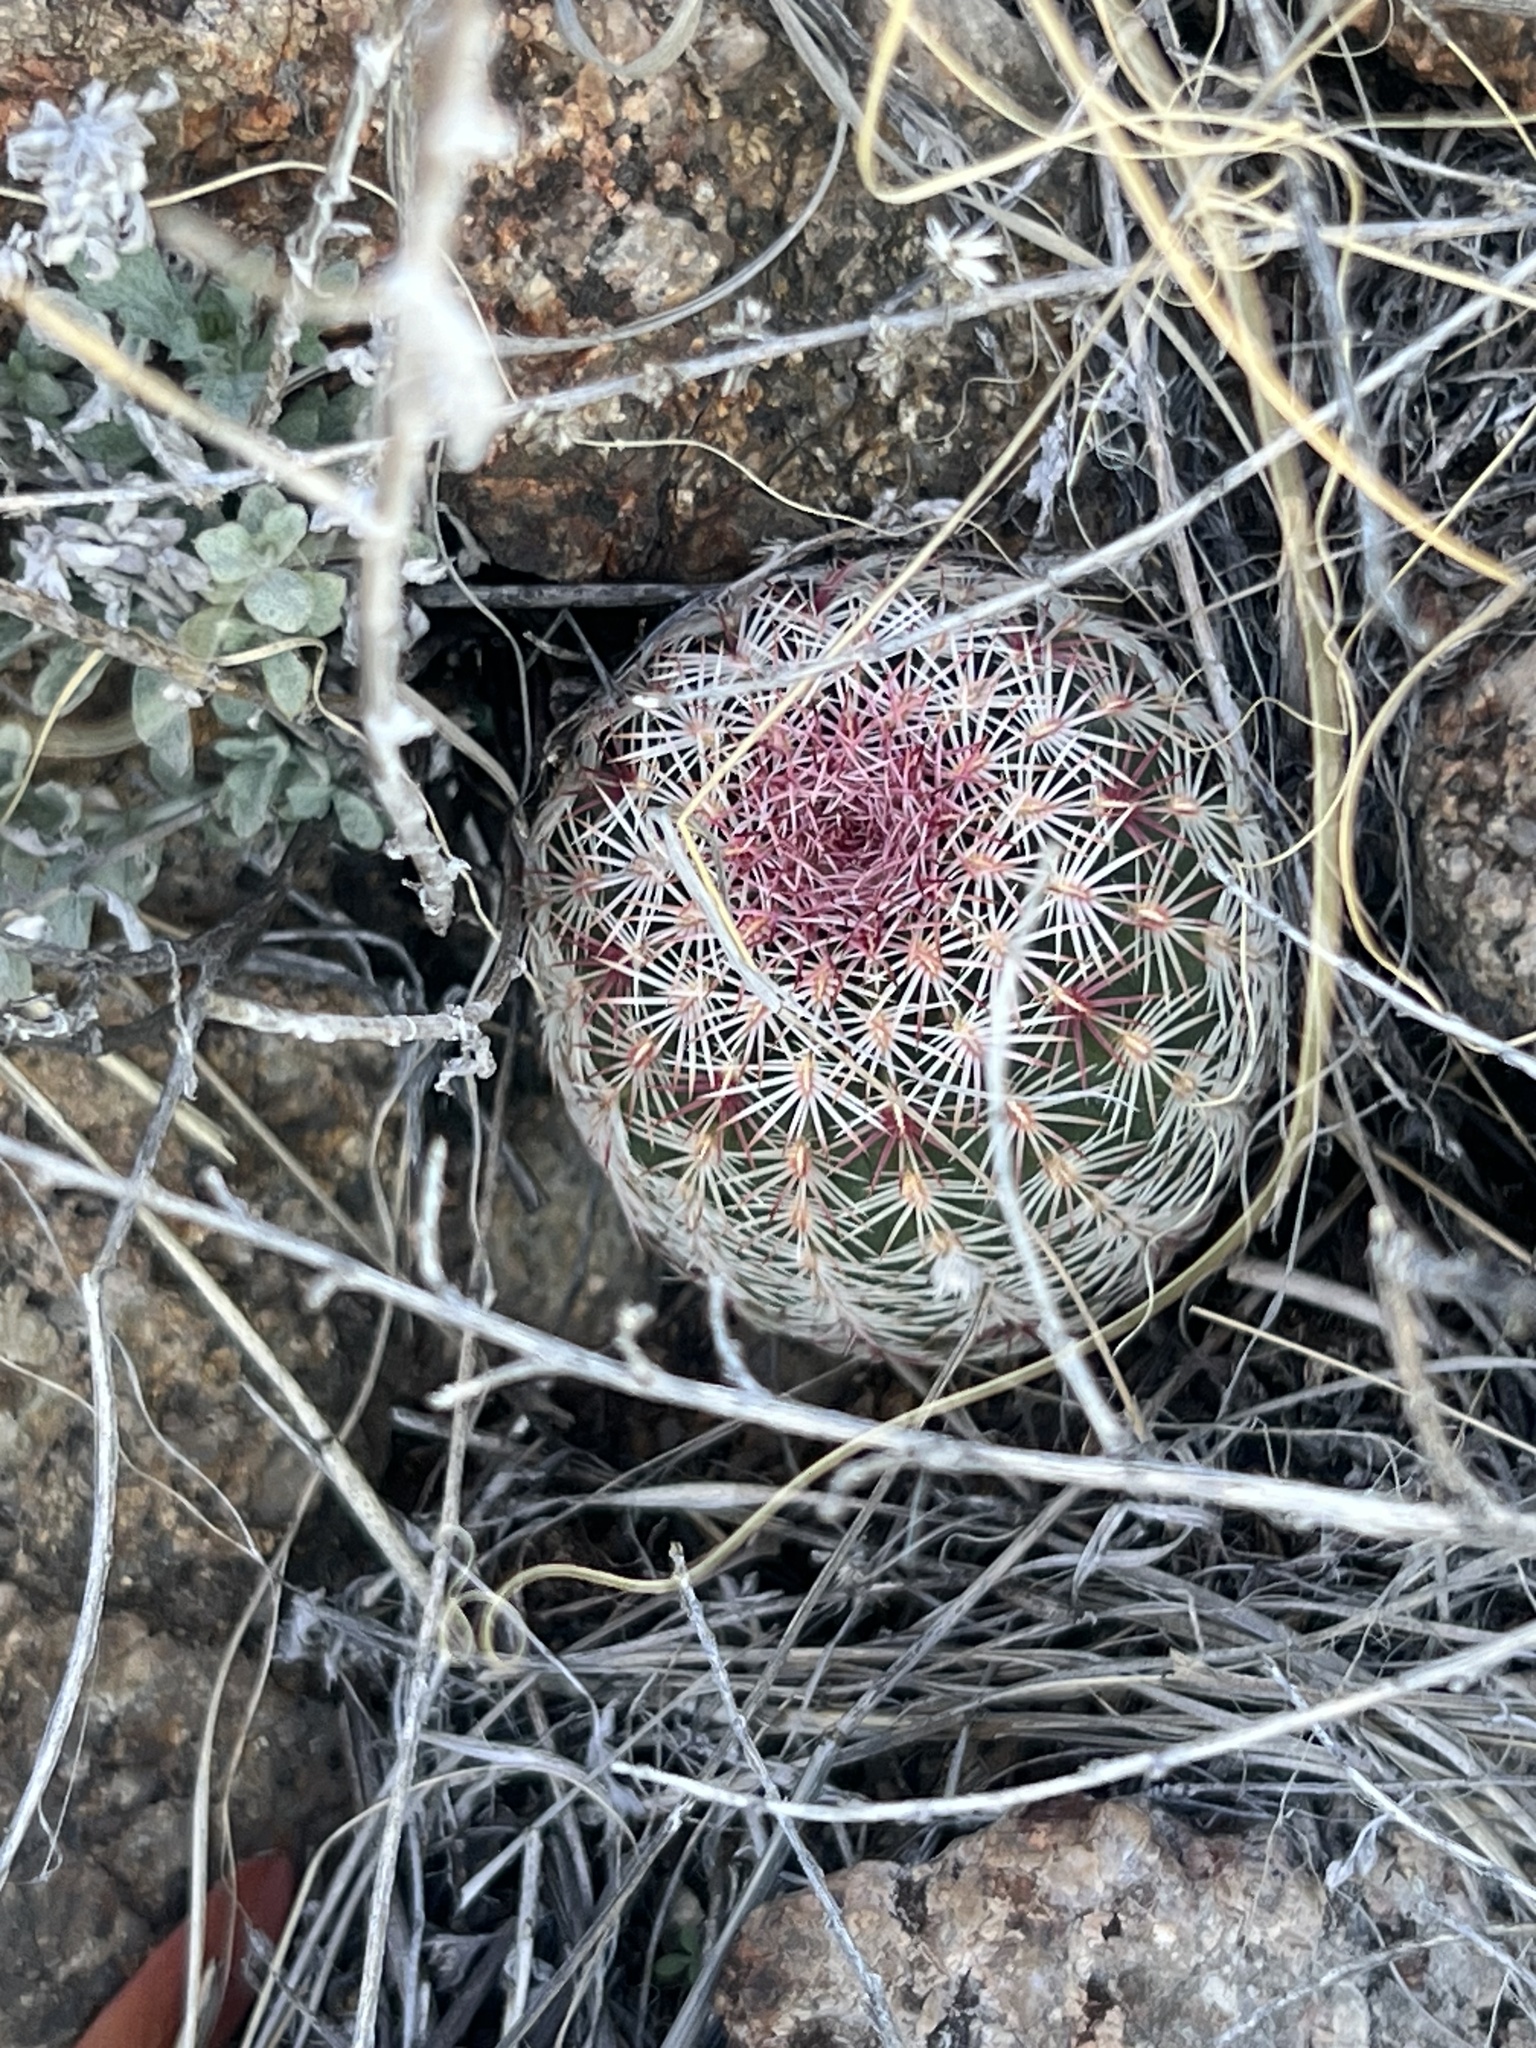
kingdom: Plantae
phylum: Tracheophyta
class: Magnoliopsida
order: Caryophyllales
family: Cactaceae
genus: Echinocereus
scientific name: Echinocereus rigidissimus
